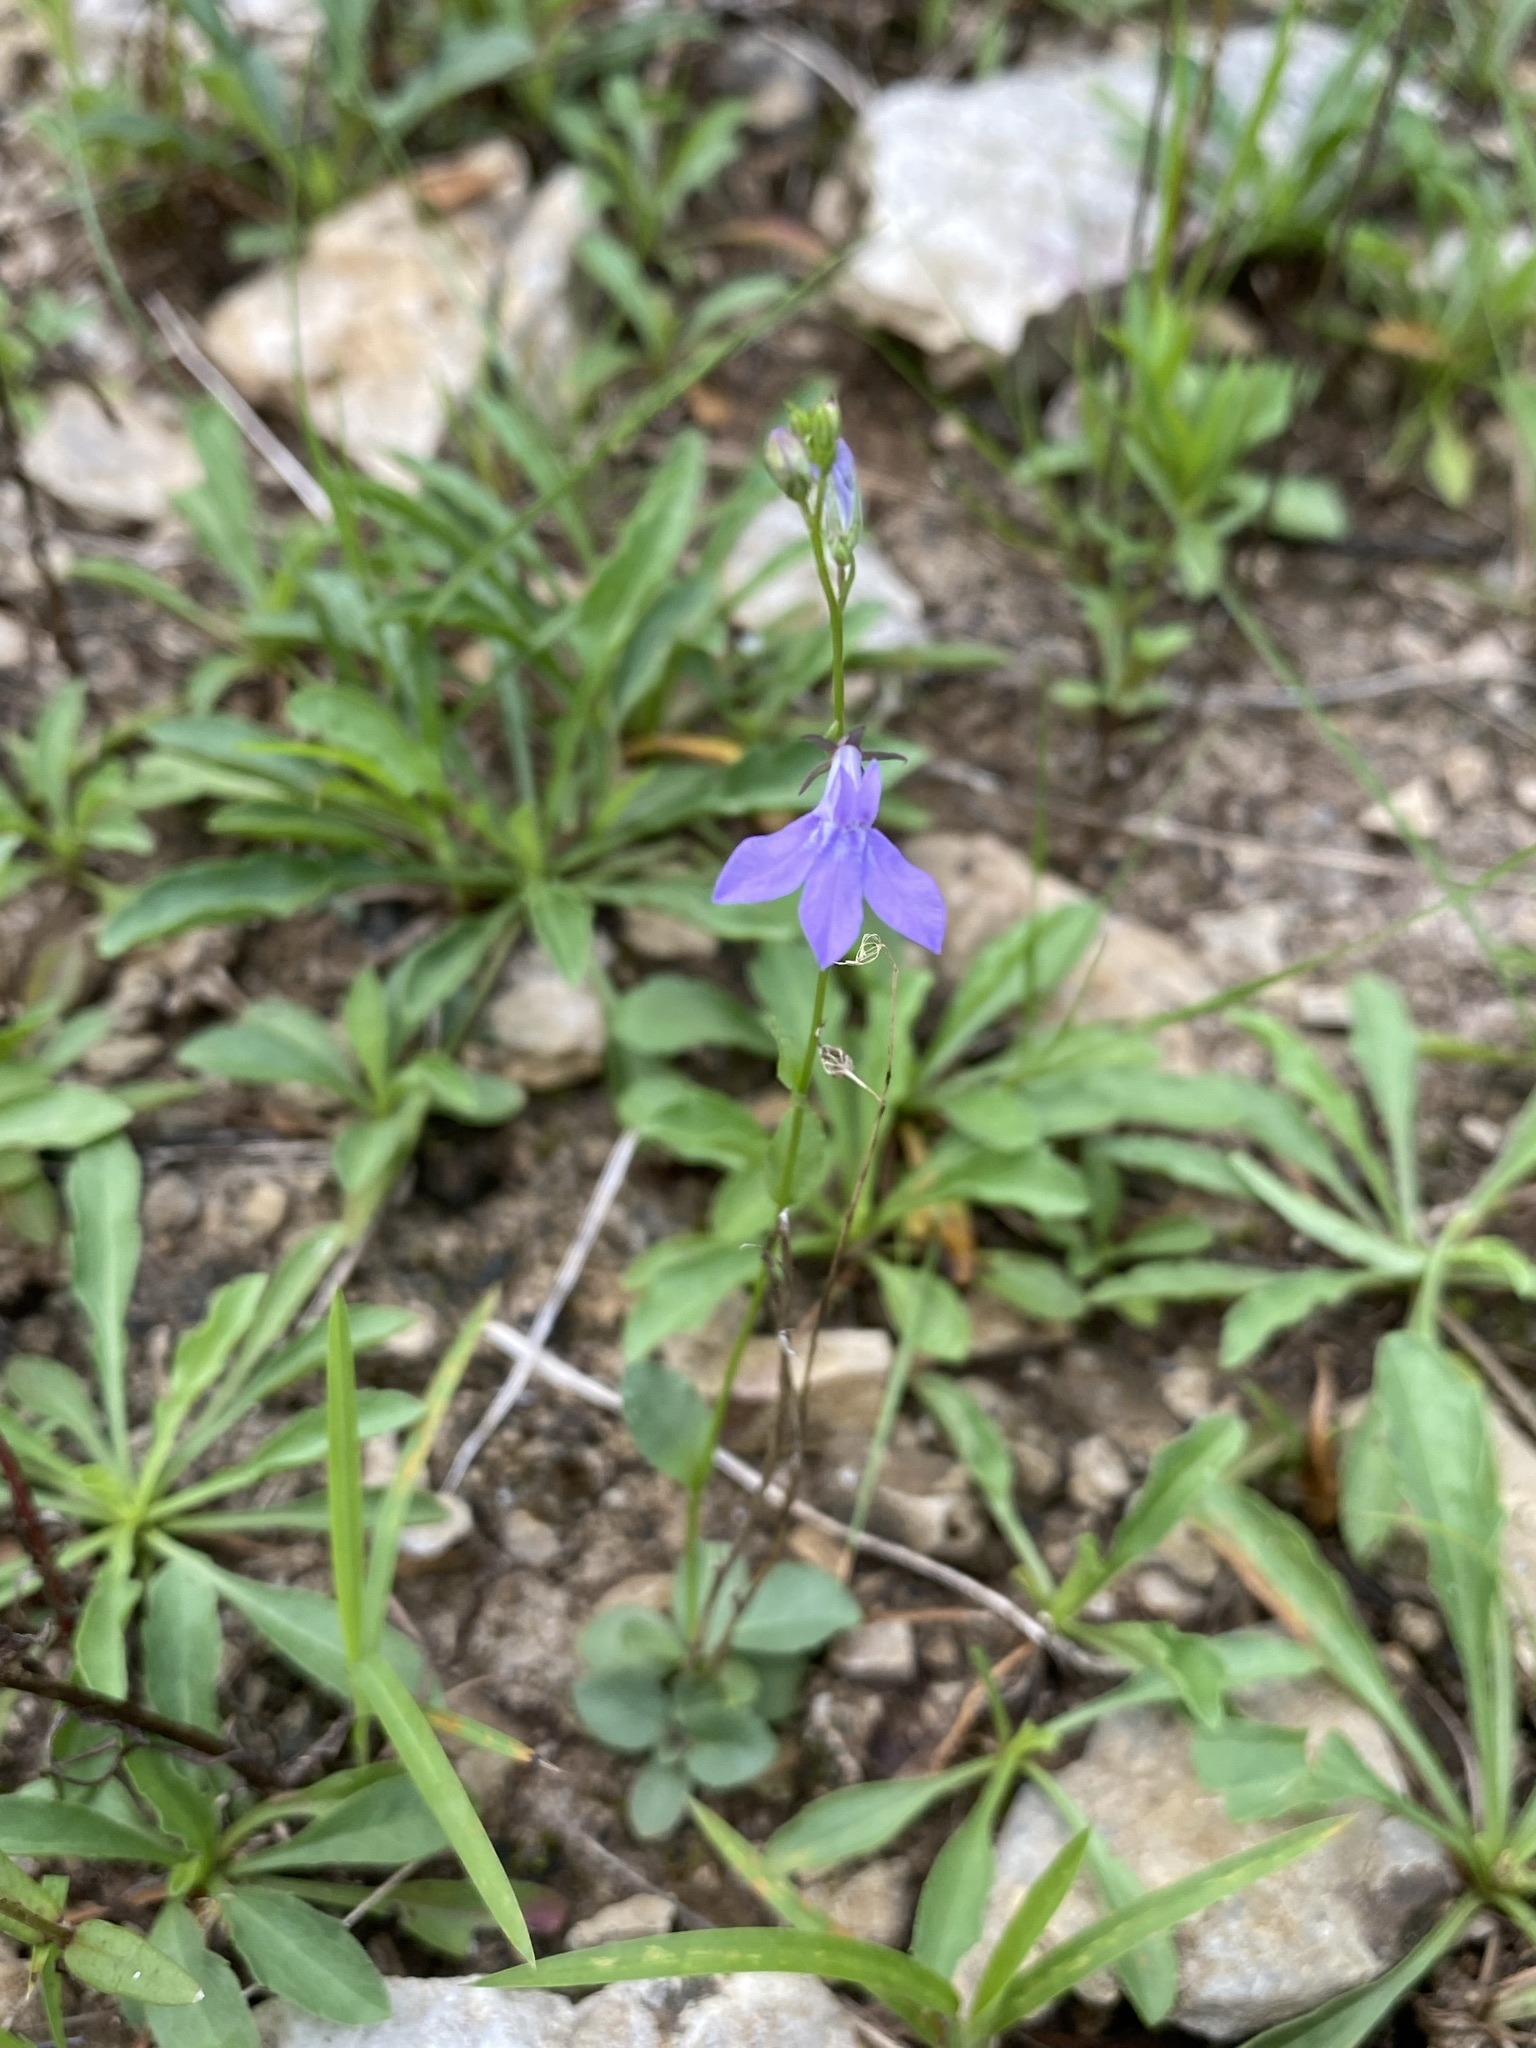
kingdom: Plantae
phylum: Tracheophyta
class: Magnoliopsida
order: Asterales
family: Campanulaceae
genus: Lobelia
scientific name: Lobelia gattingeri
